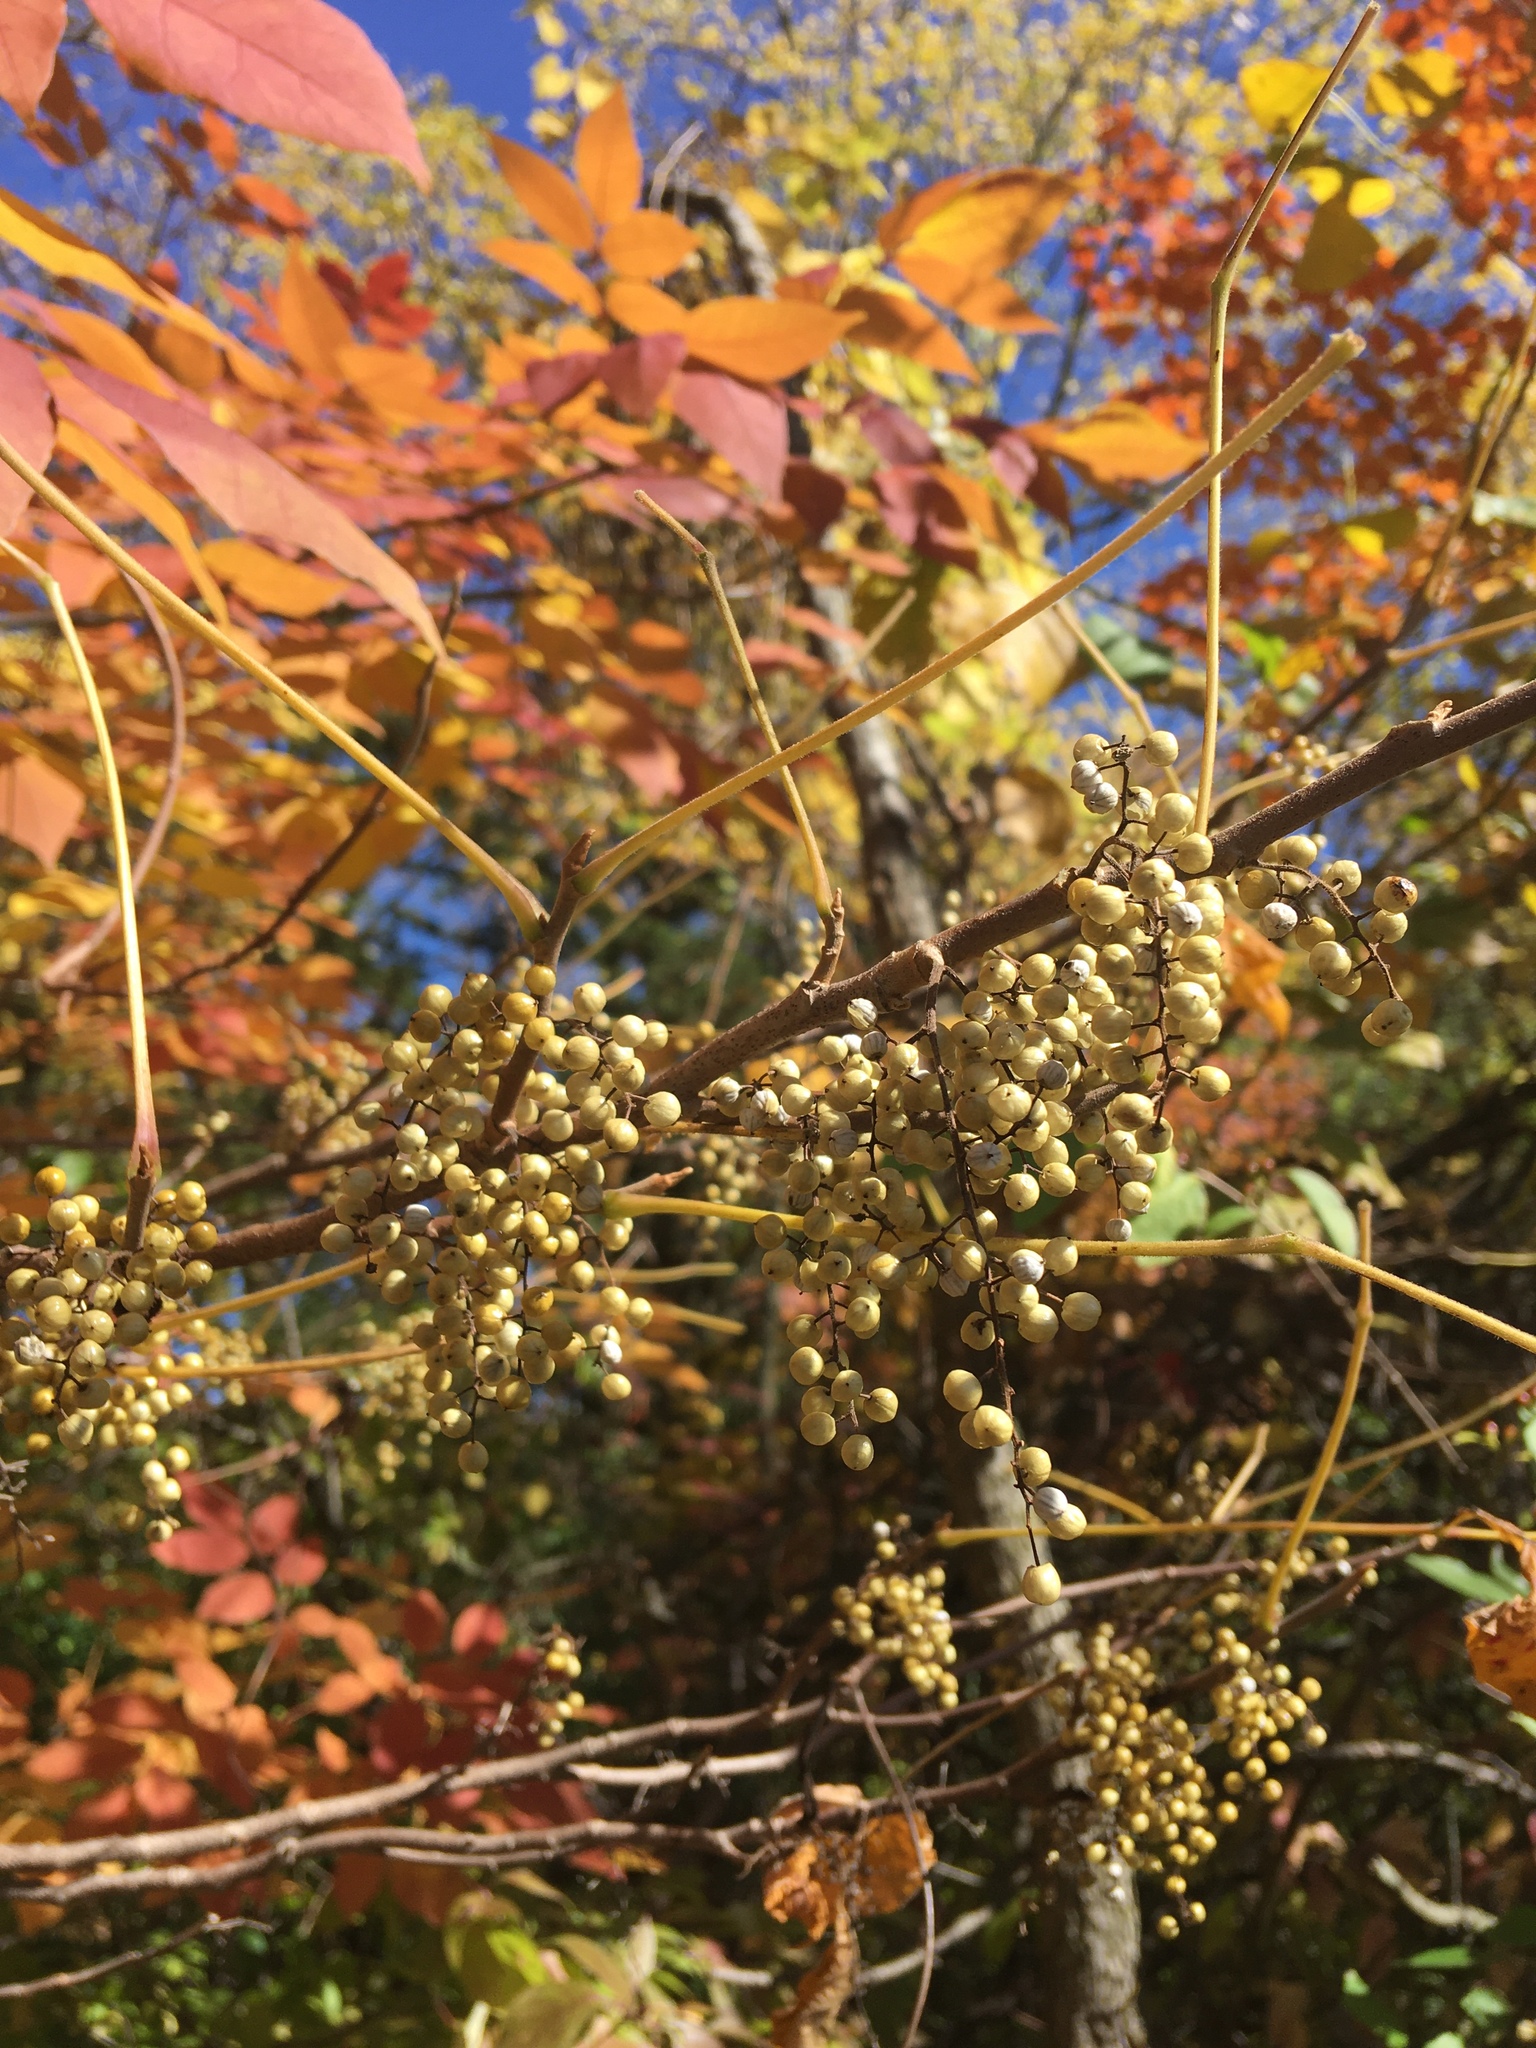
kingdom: Plantae
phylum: Tracheophyta
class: Magnoliopsida
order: Sapindales
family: Anacardiaceae
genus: Toxicodendron
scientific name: Toxicodendron radicans
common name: Poison ivy
